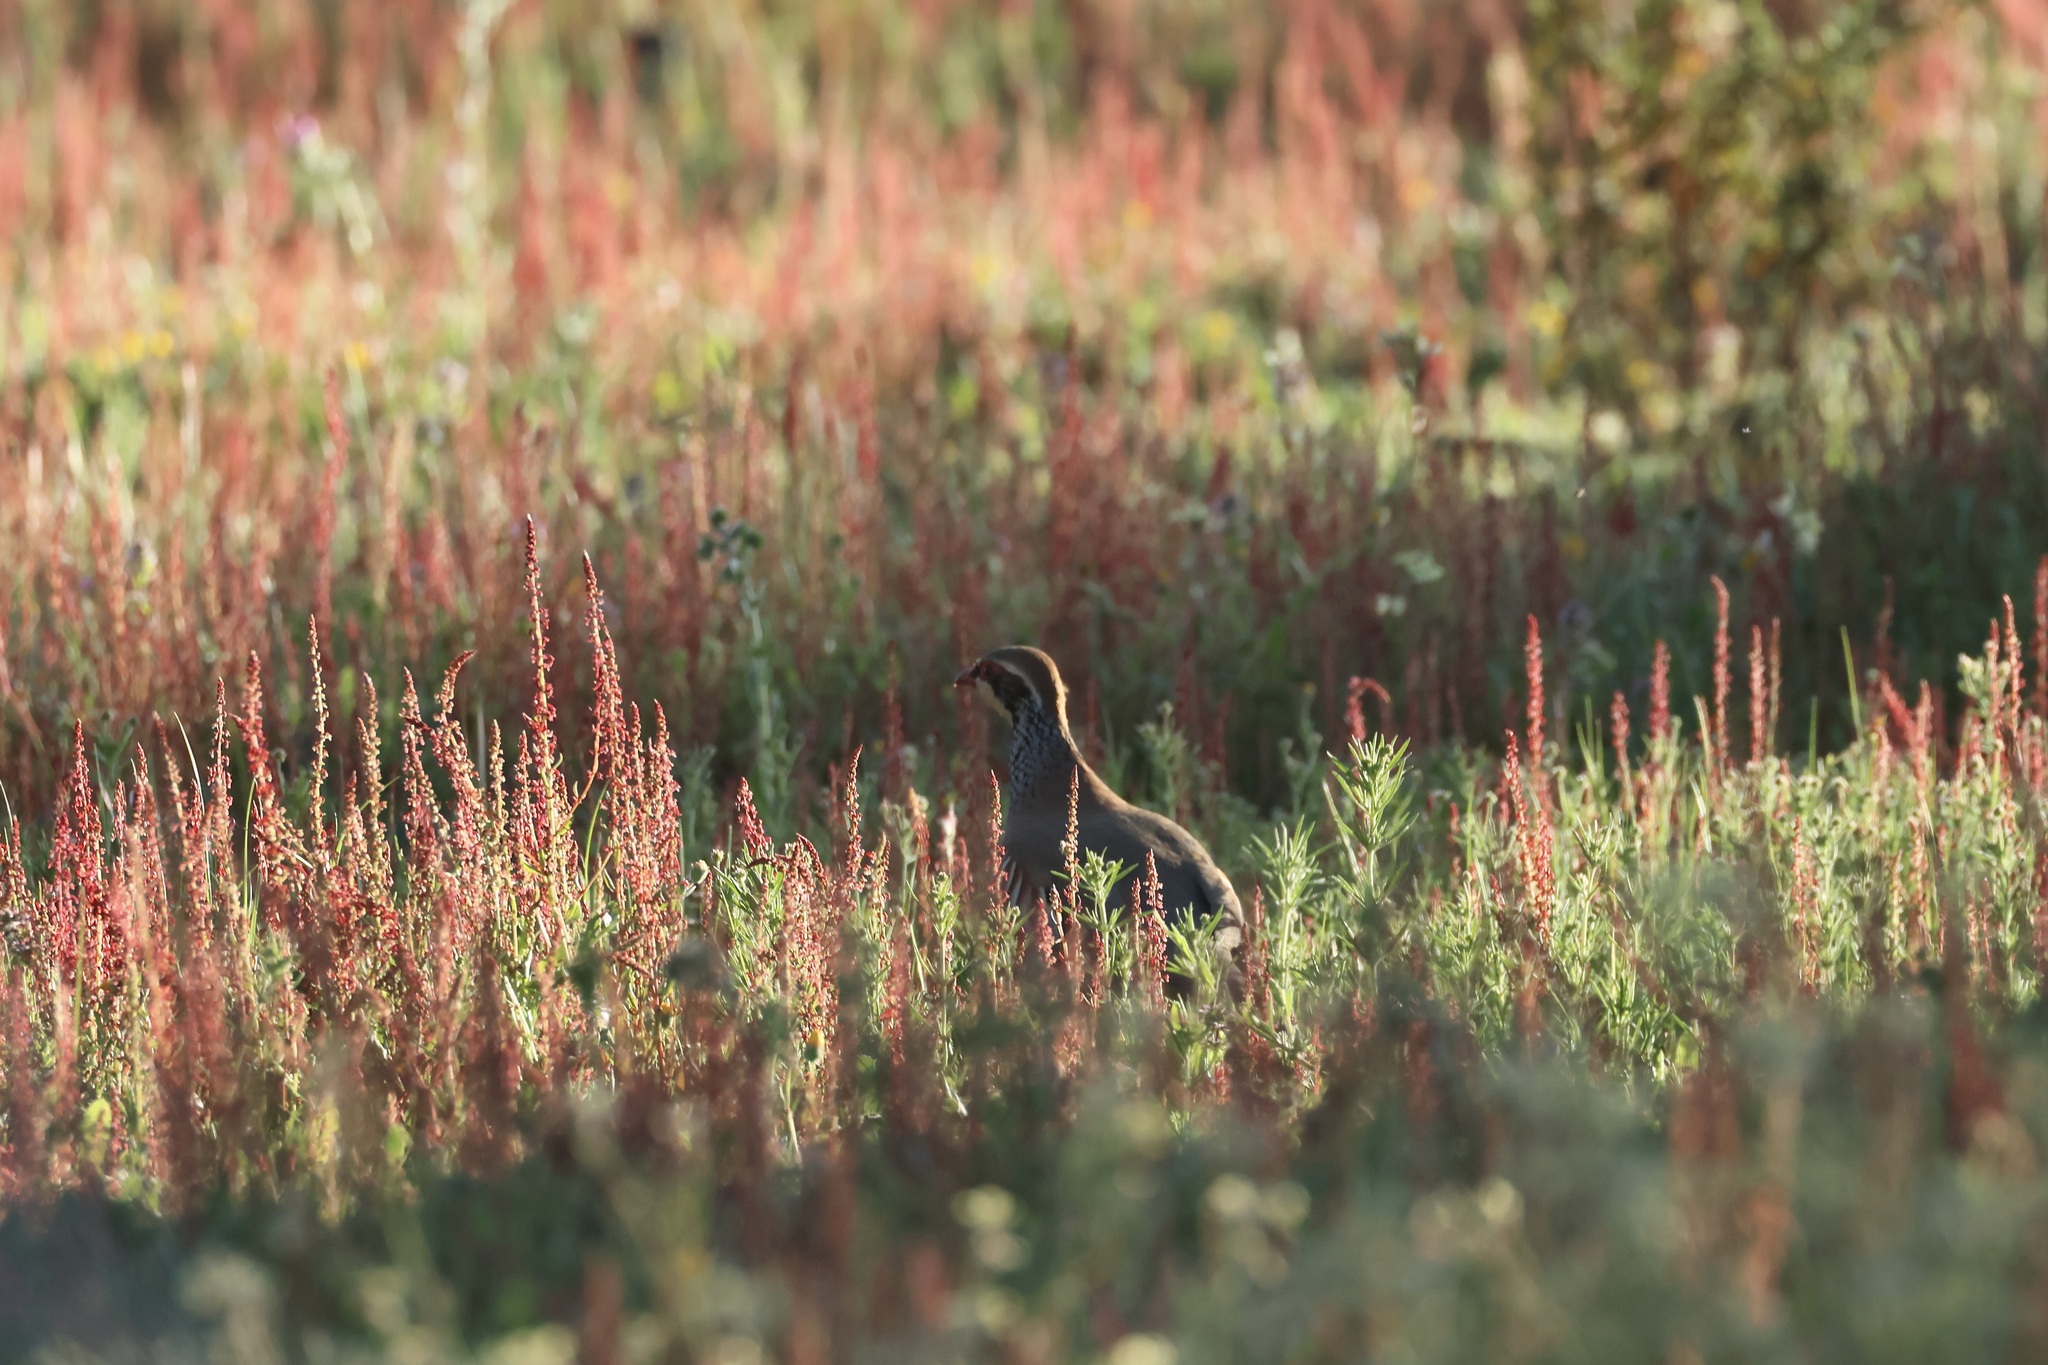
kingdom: Animalia
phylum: Chordata
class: Aves
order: Galliformes
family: Phasianidae
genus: Alectoris
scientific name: Alectoris rufa
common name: Red-legged partridge
